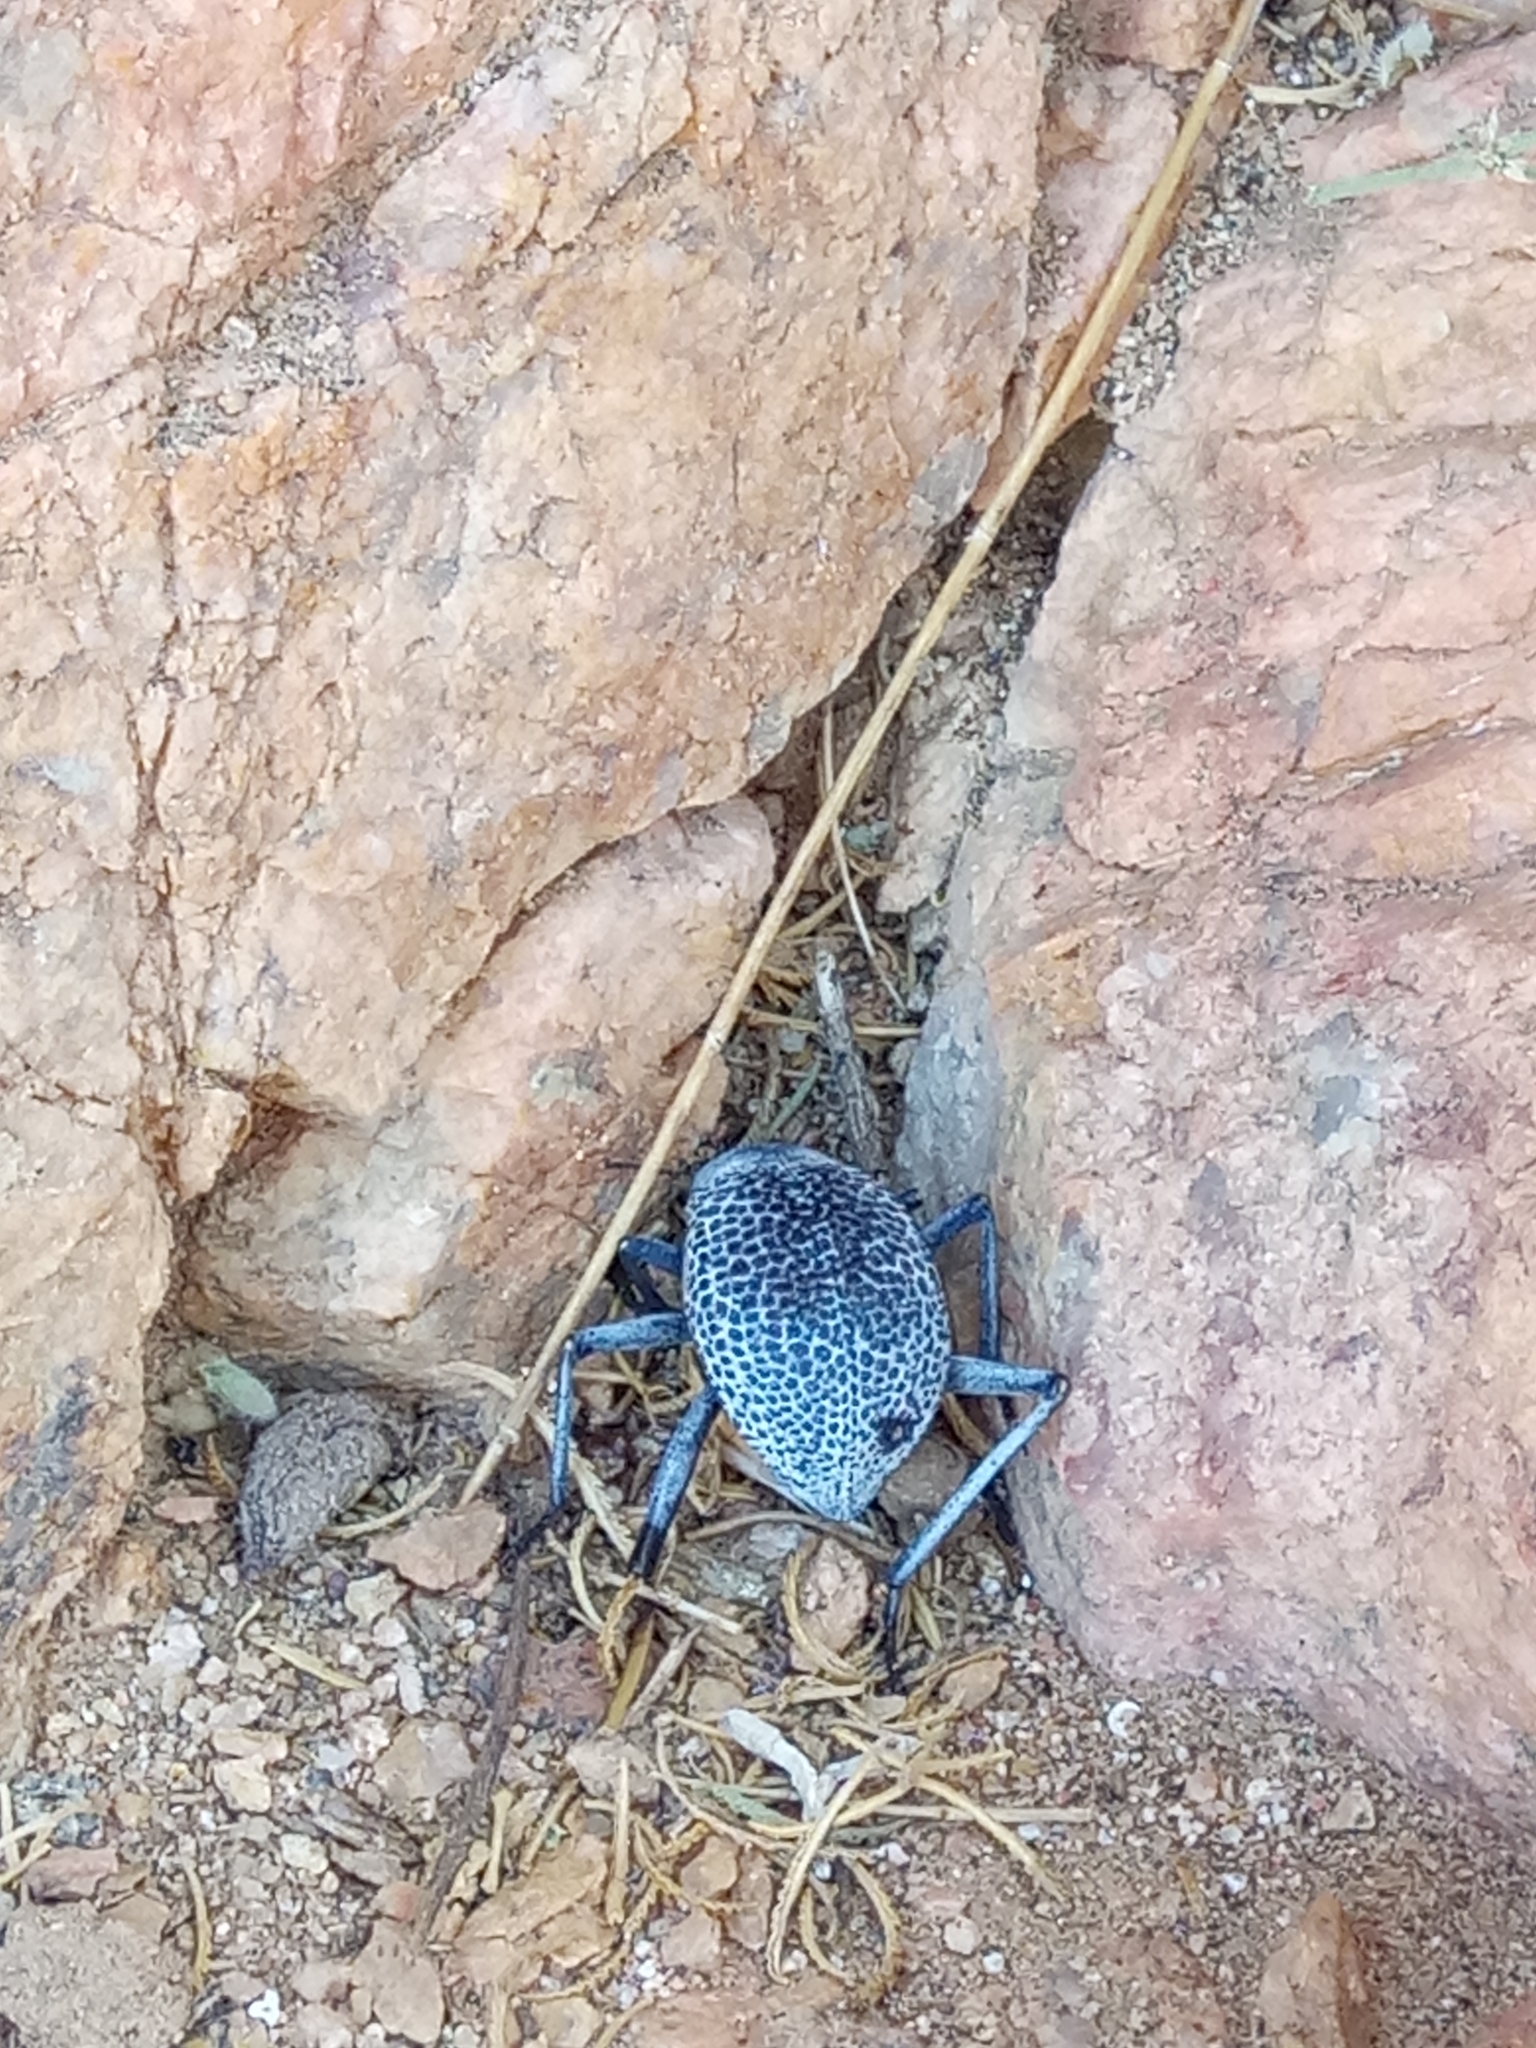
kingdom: Animalia
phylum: Arthropoda
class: Insecta
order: Coleoptera
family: Tenebrionidae
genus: Adesmia
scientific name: Adesmia
